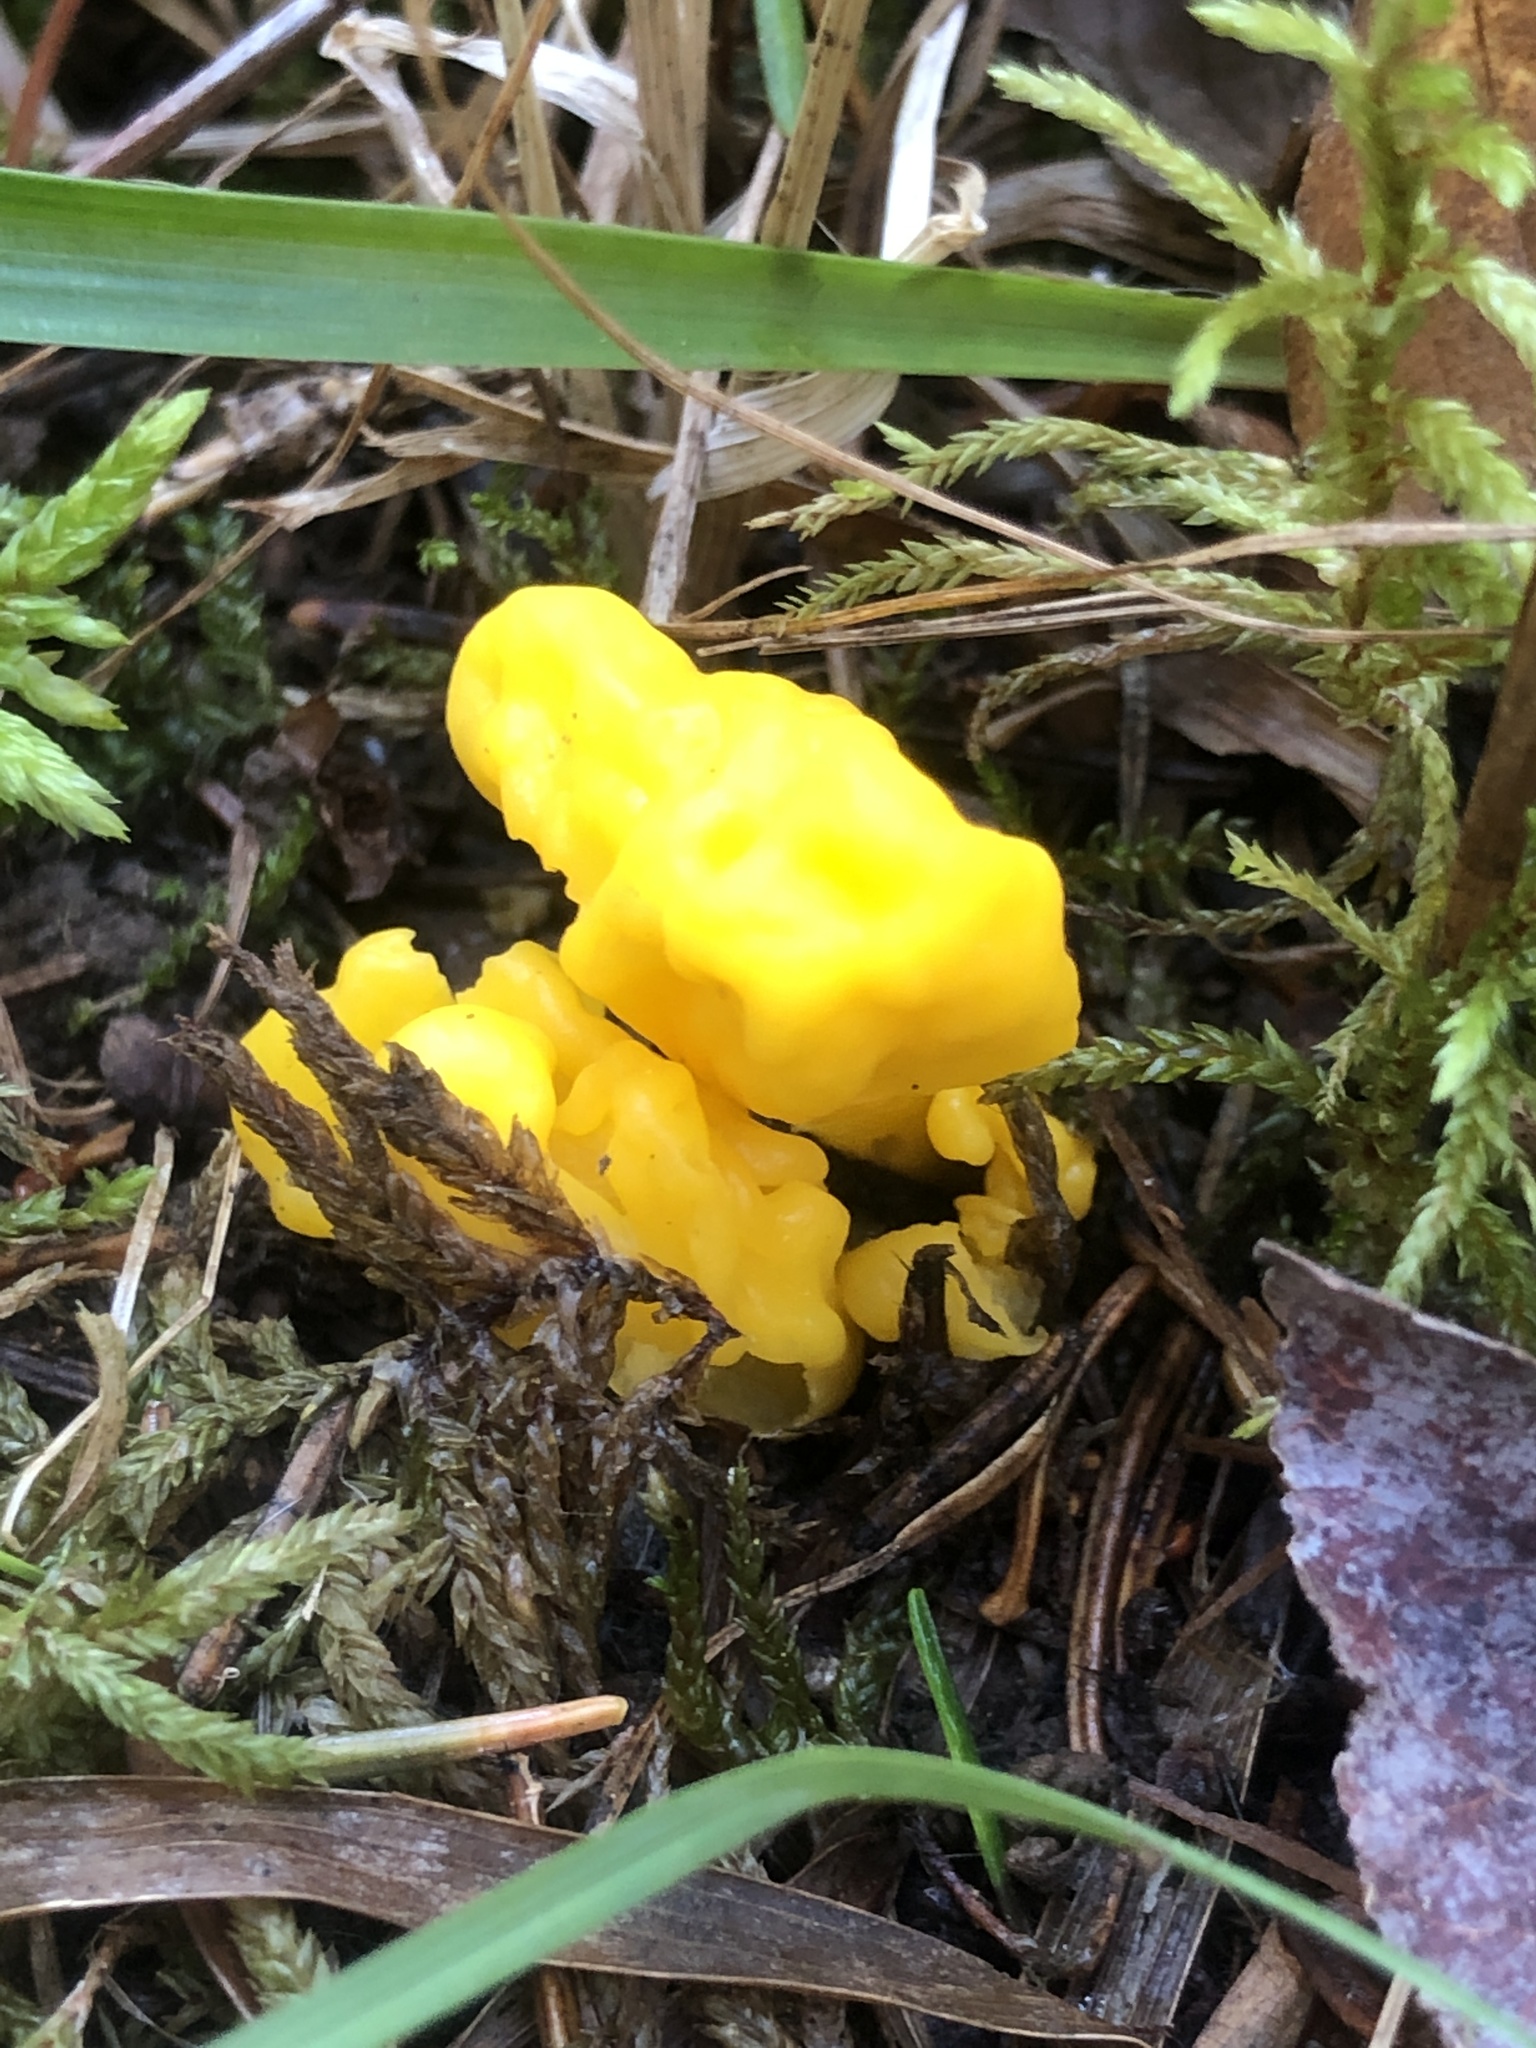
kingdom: Fungi
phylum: Ascomycota
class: Neolectomycetes
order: Neolectales
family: Neolectaceae
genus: Neolecta
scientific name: Neolecta irregularis
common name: Irregular earth tongue
